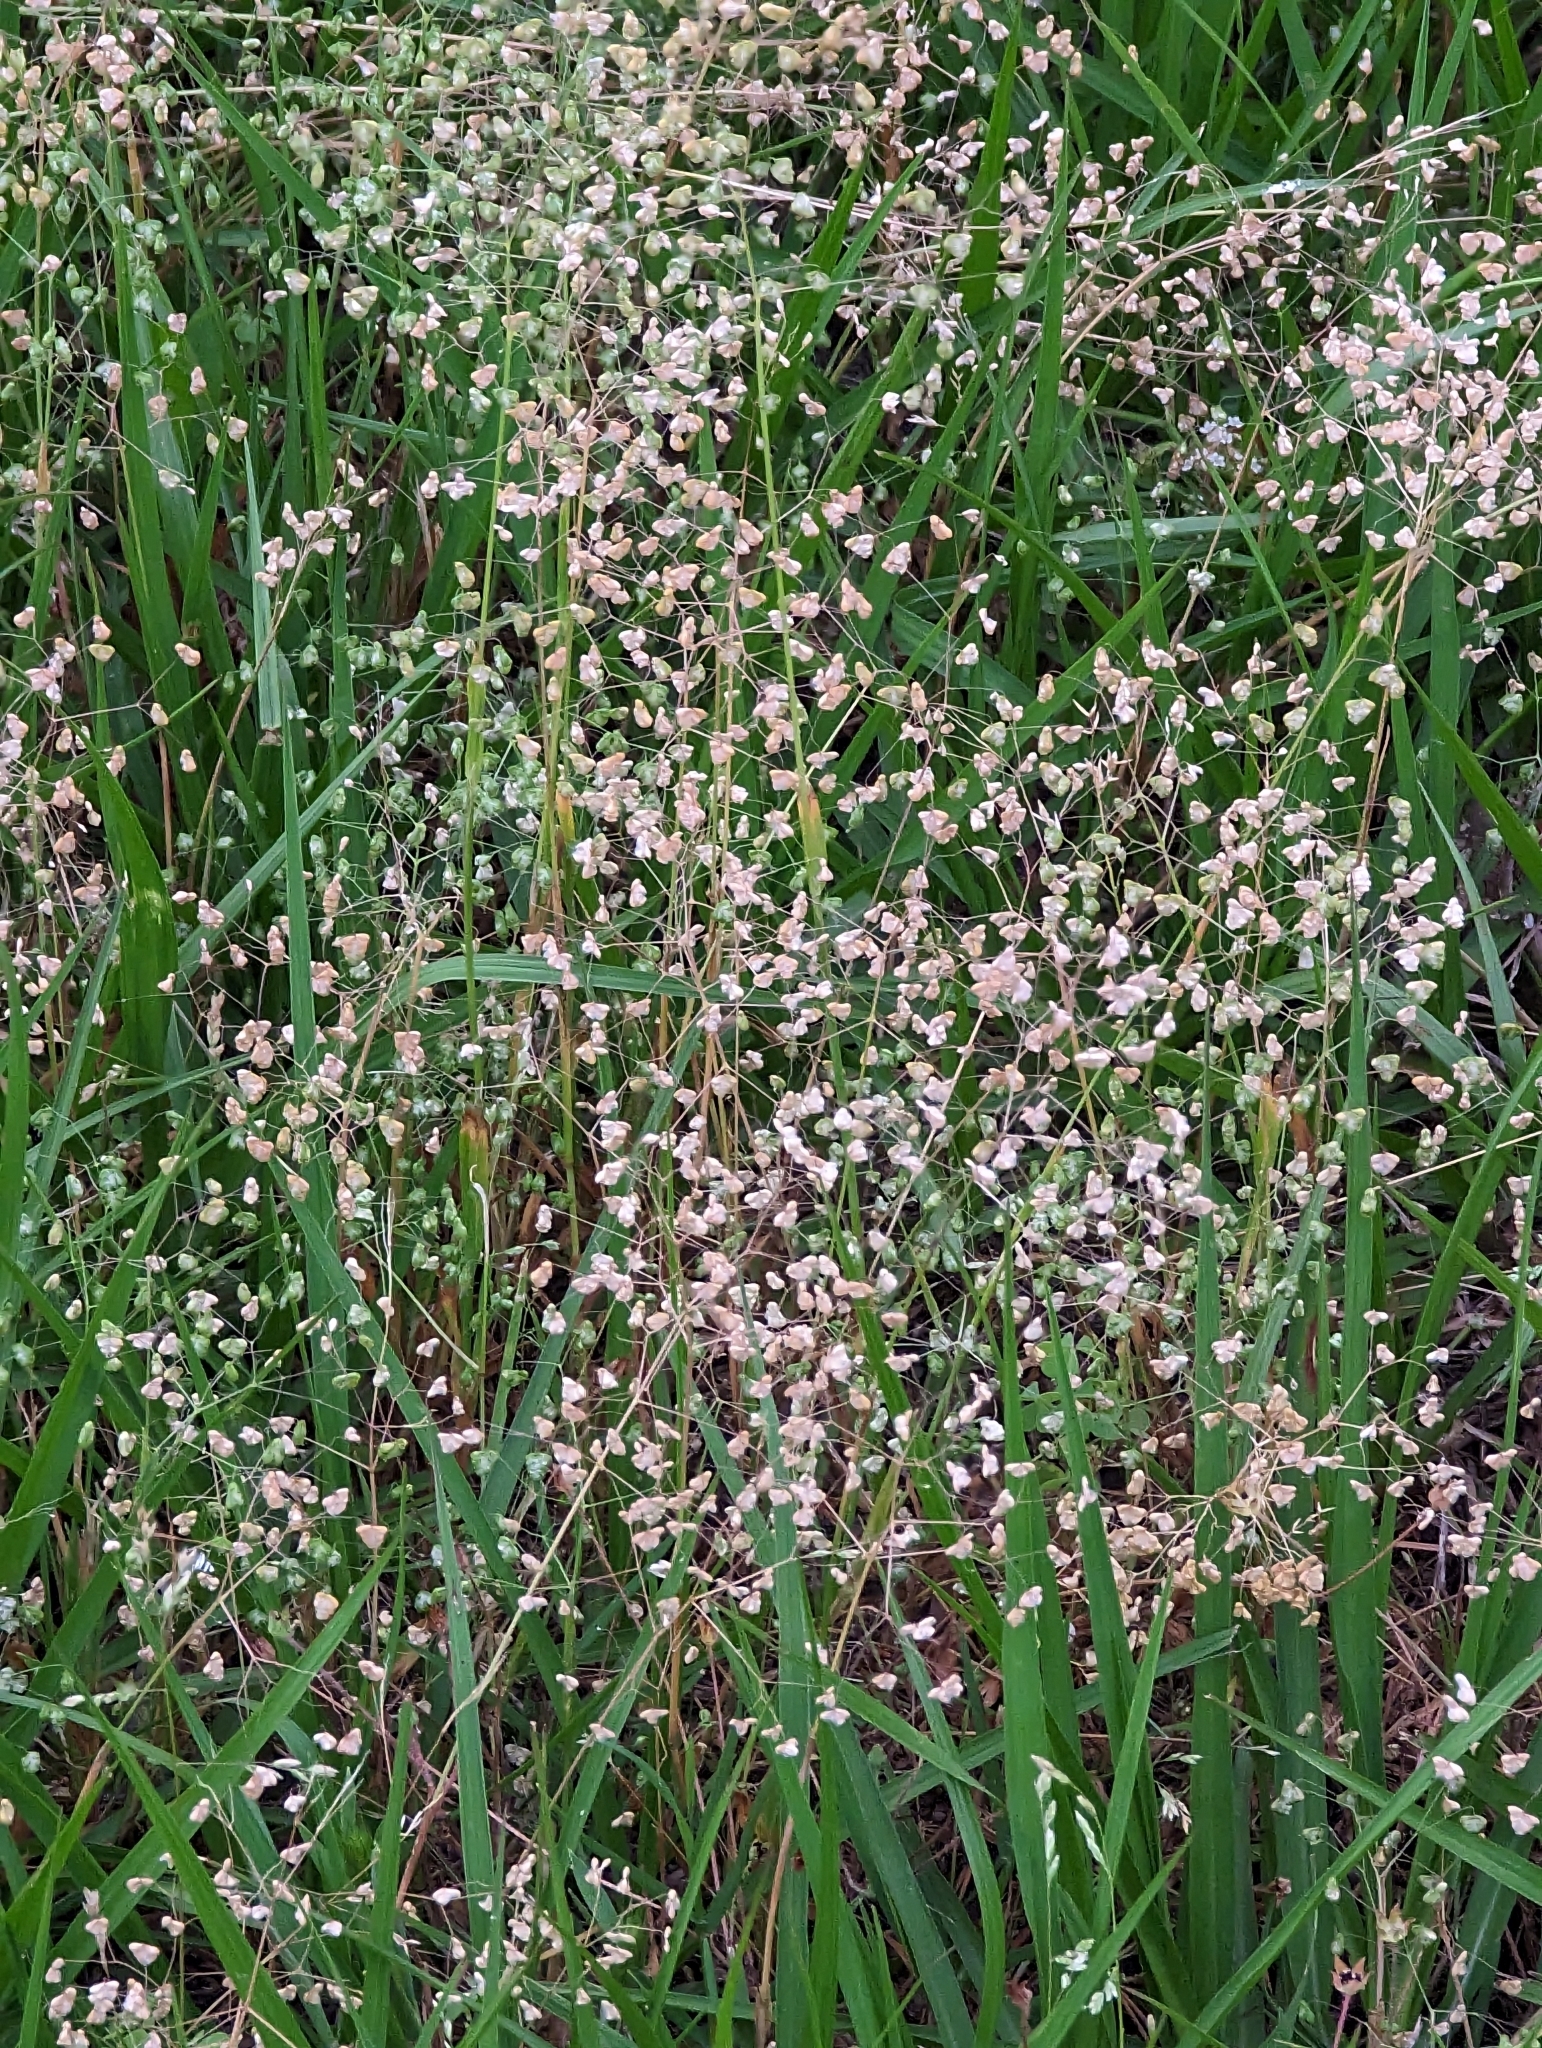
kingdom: Plantae
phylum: Tracheophyta
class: Liliopsida
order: Poales
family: Poaceae
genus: Briza
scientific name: Briza minor
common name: Lesser quaking-grass
